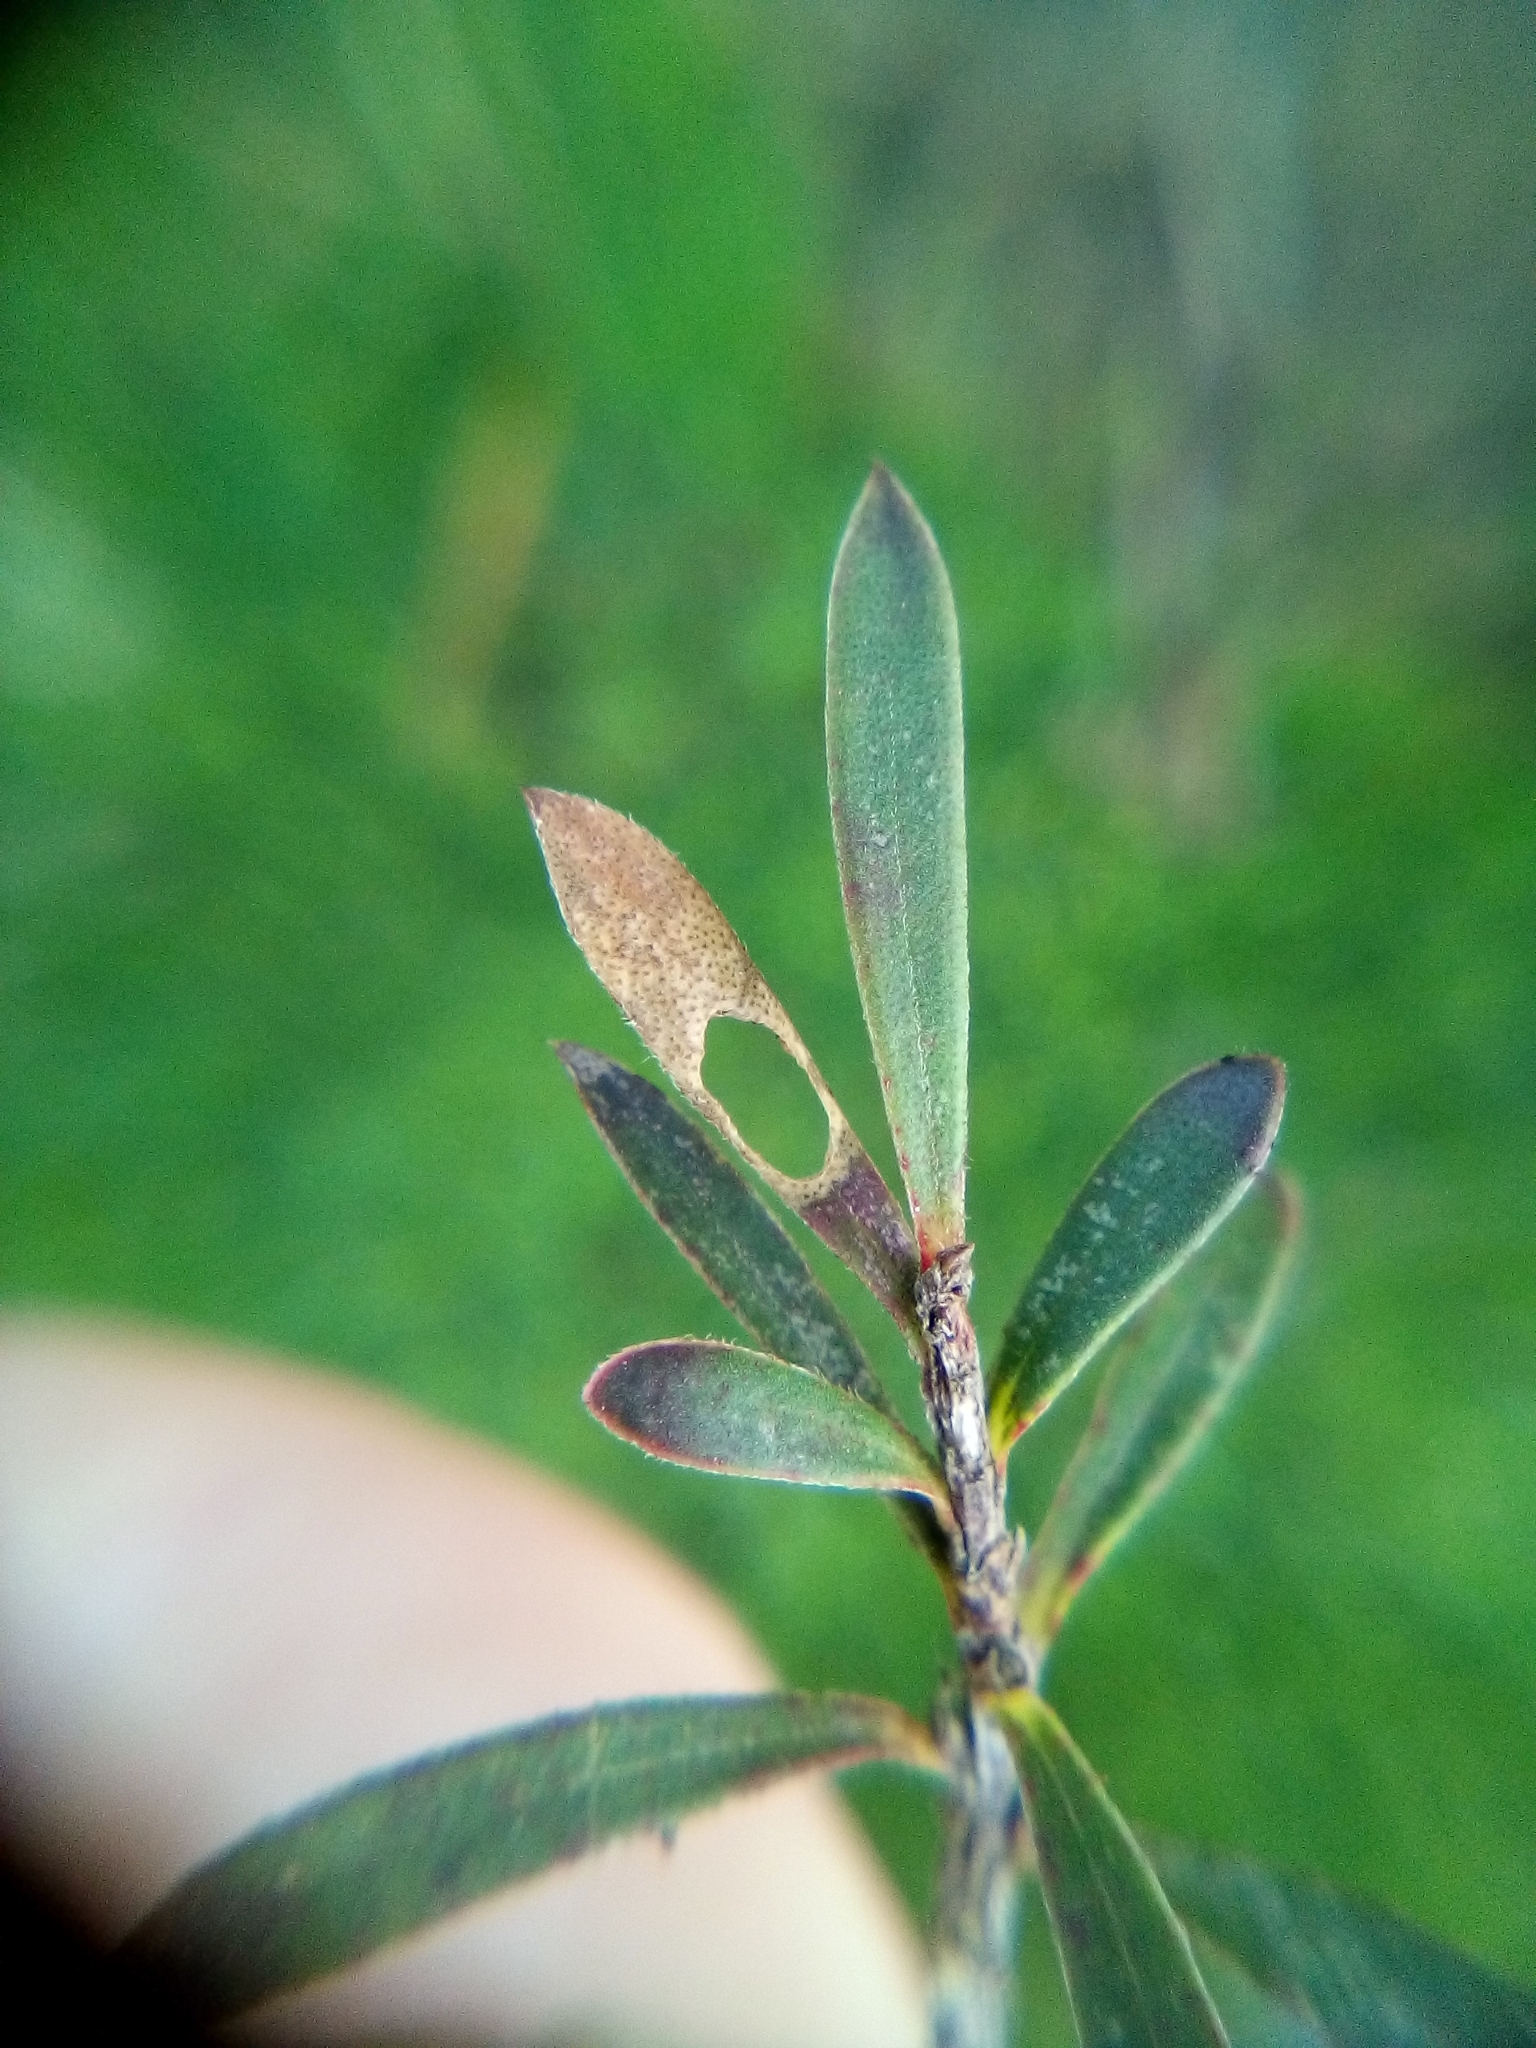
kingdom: Animalia
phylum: Arthropoda
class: Insecta
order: Lepidoptera
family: Heliozelidae
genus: Heliozela
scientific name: Heliozela catoptrias
